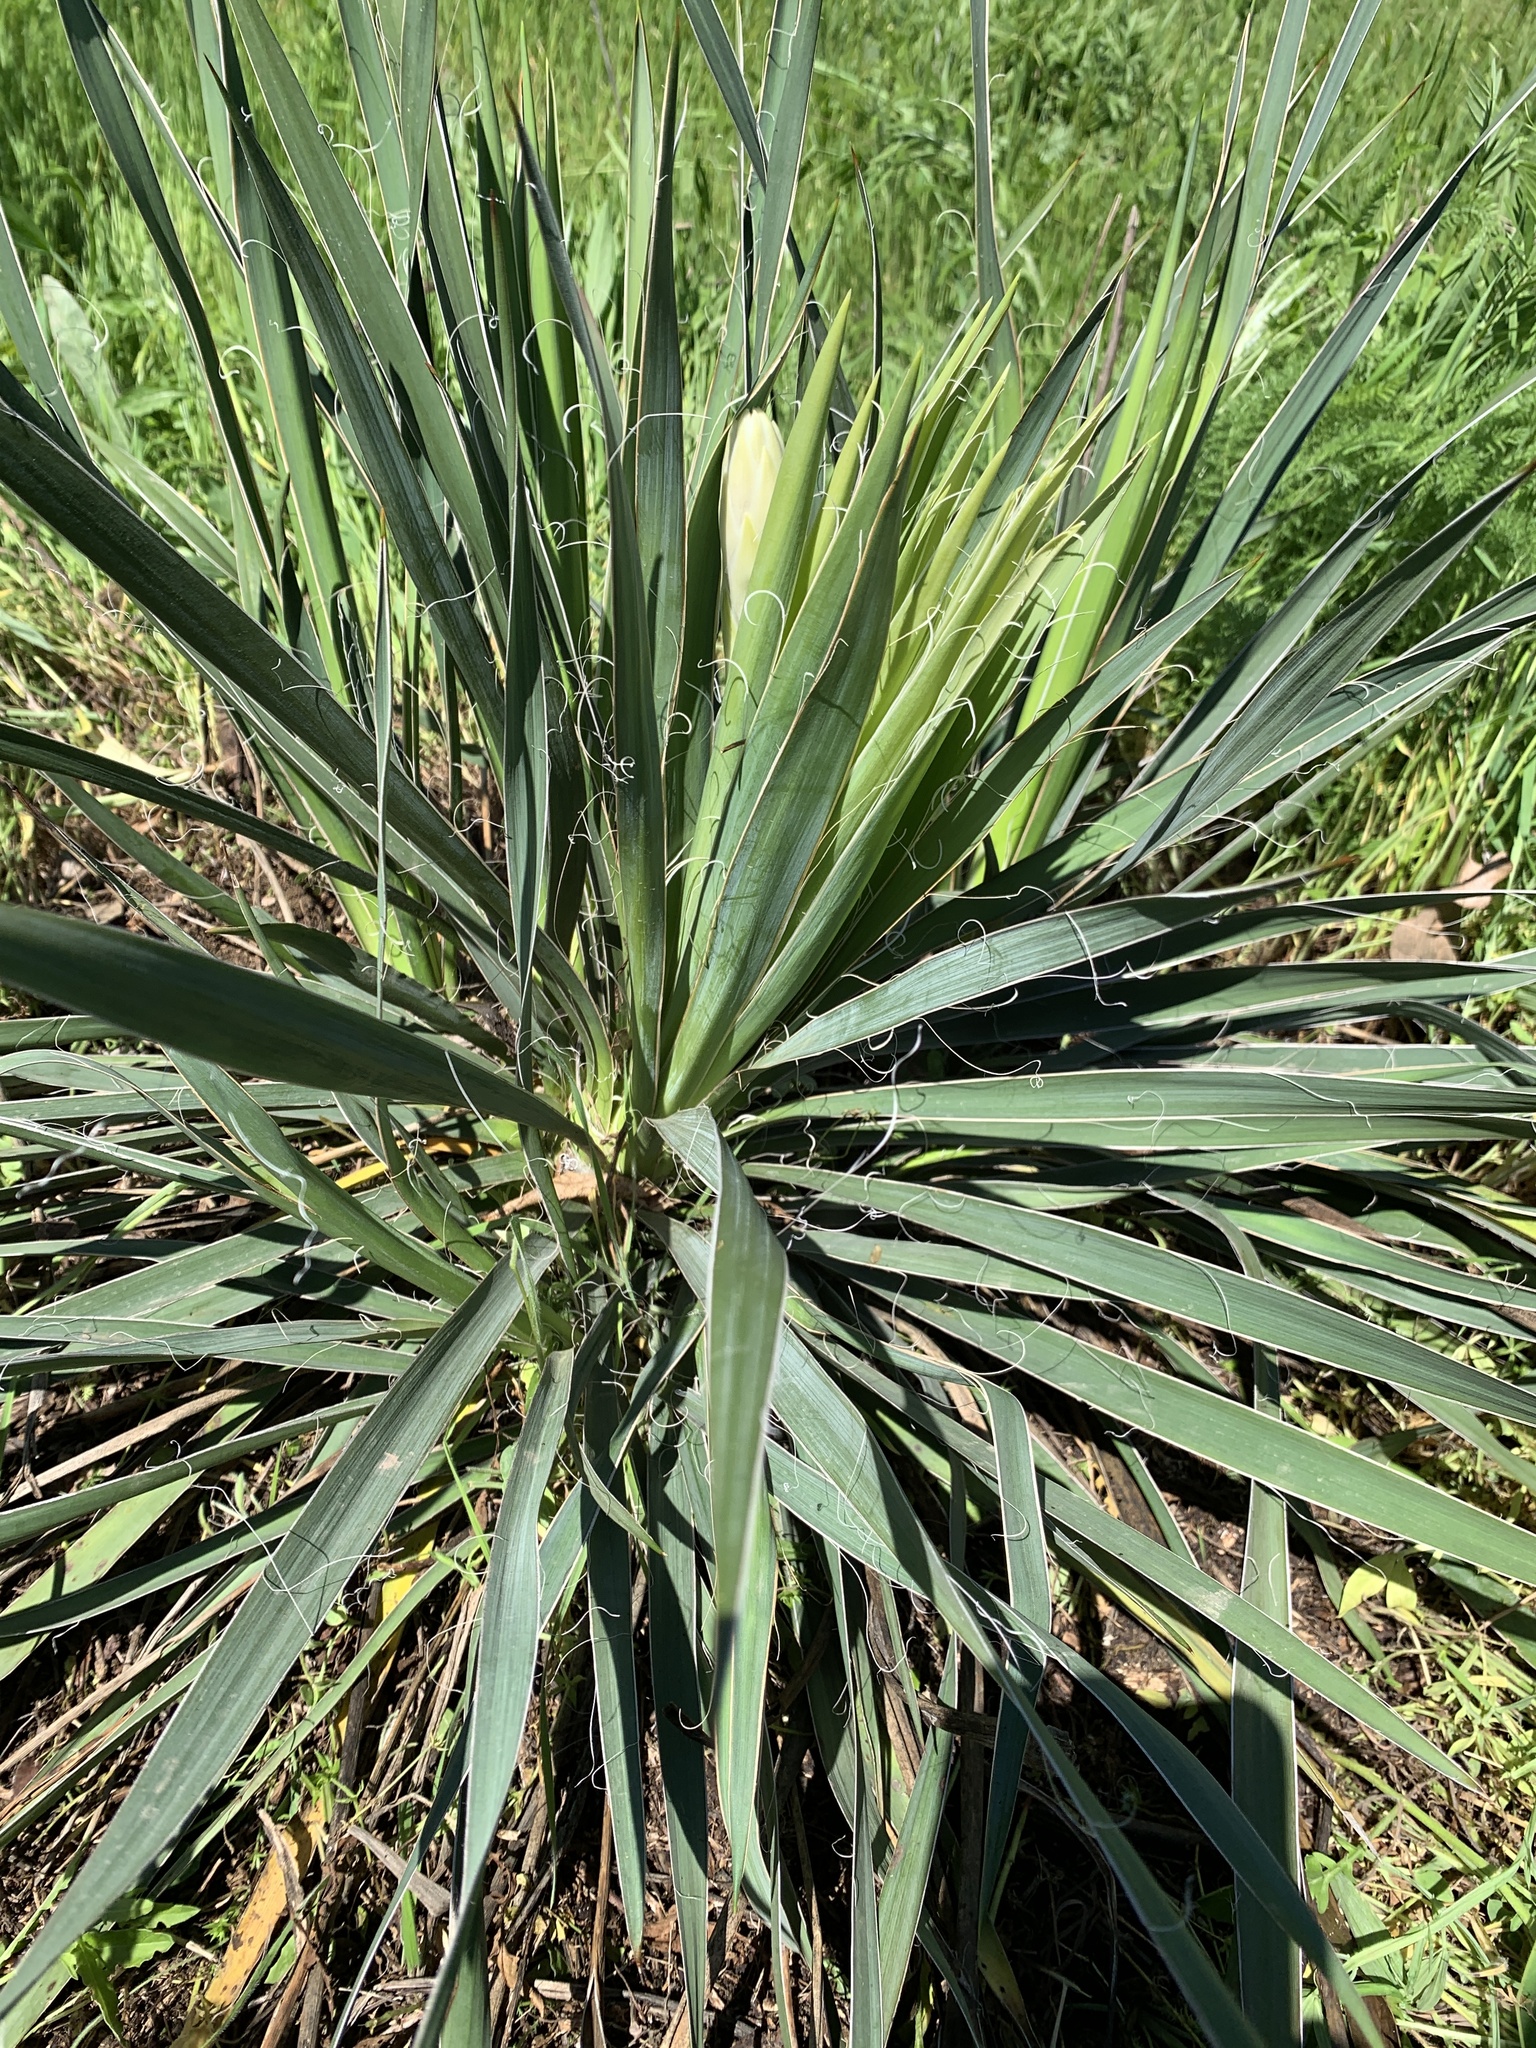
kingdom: Plantae
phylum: Tracheophyta
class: Liliopsida
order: Asparagales
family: Asparagaceae
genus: Yucca
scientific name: Yucca arkansana
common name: Arkansas yucca
